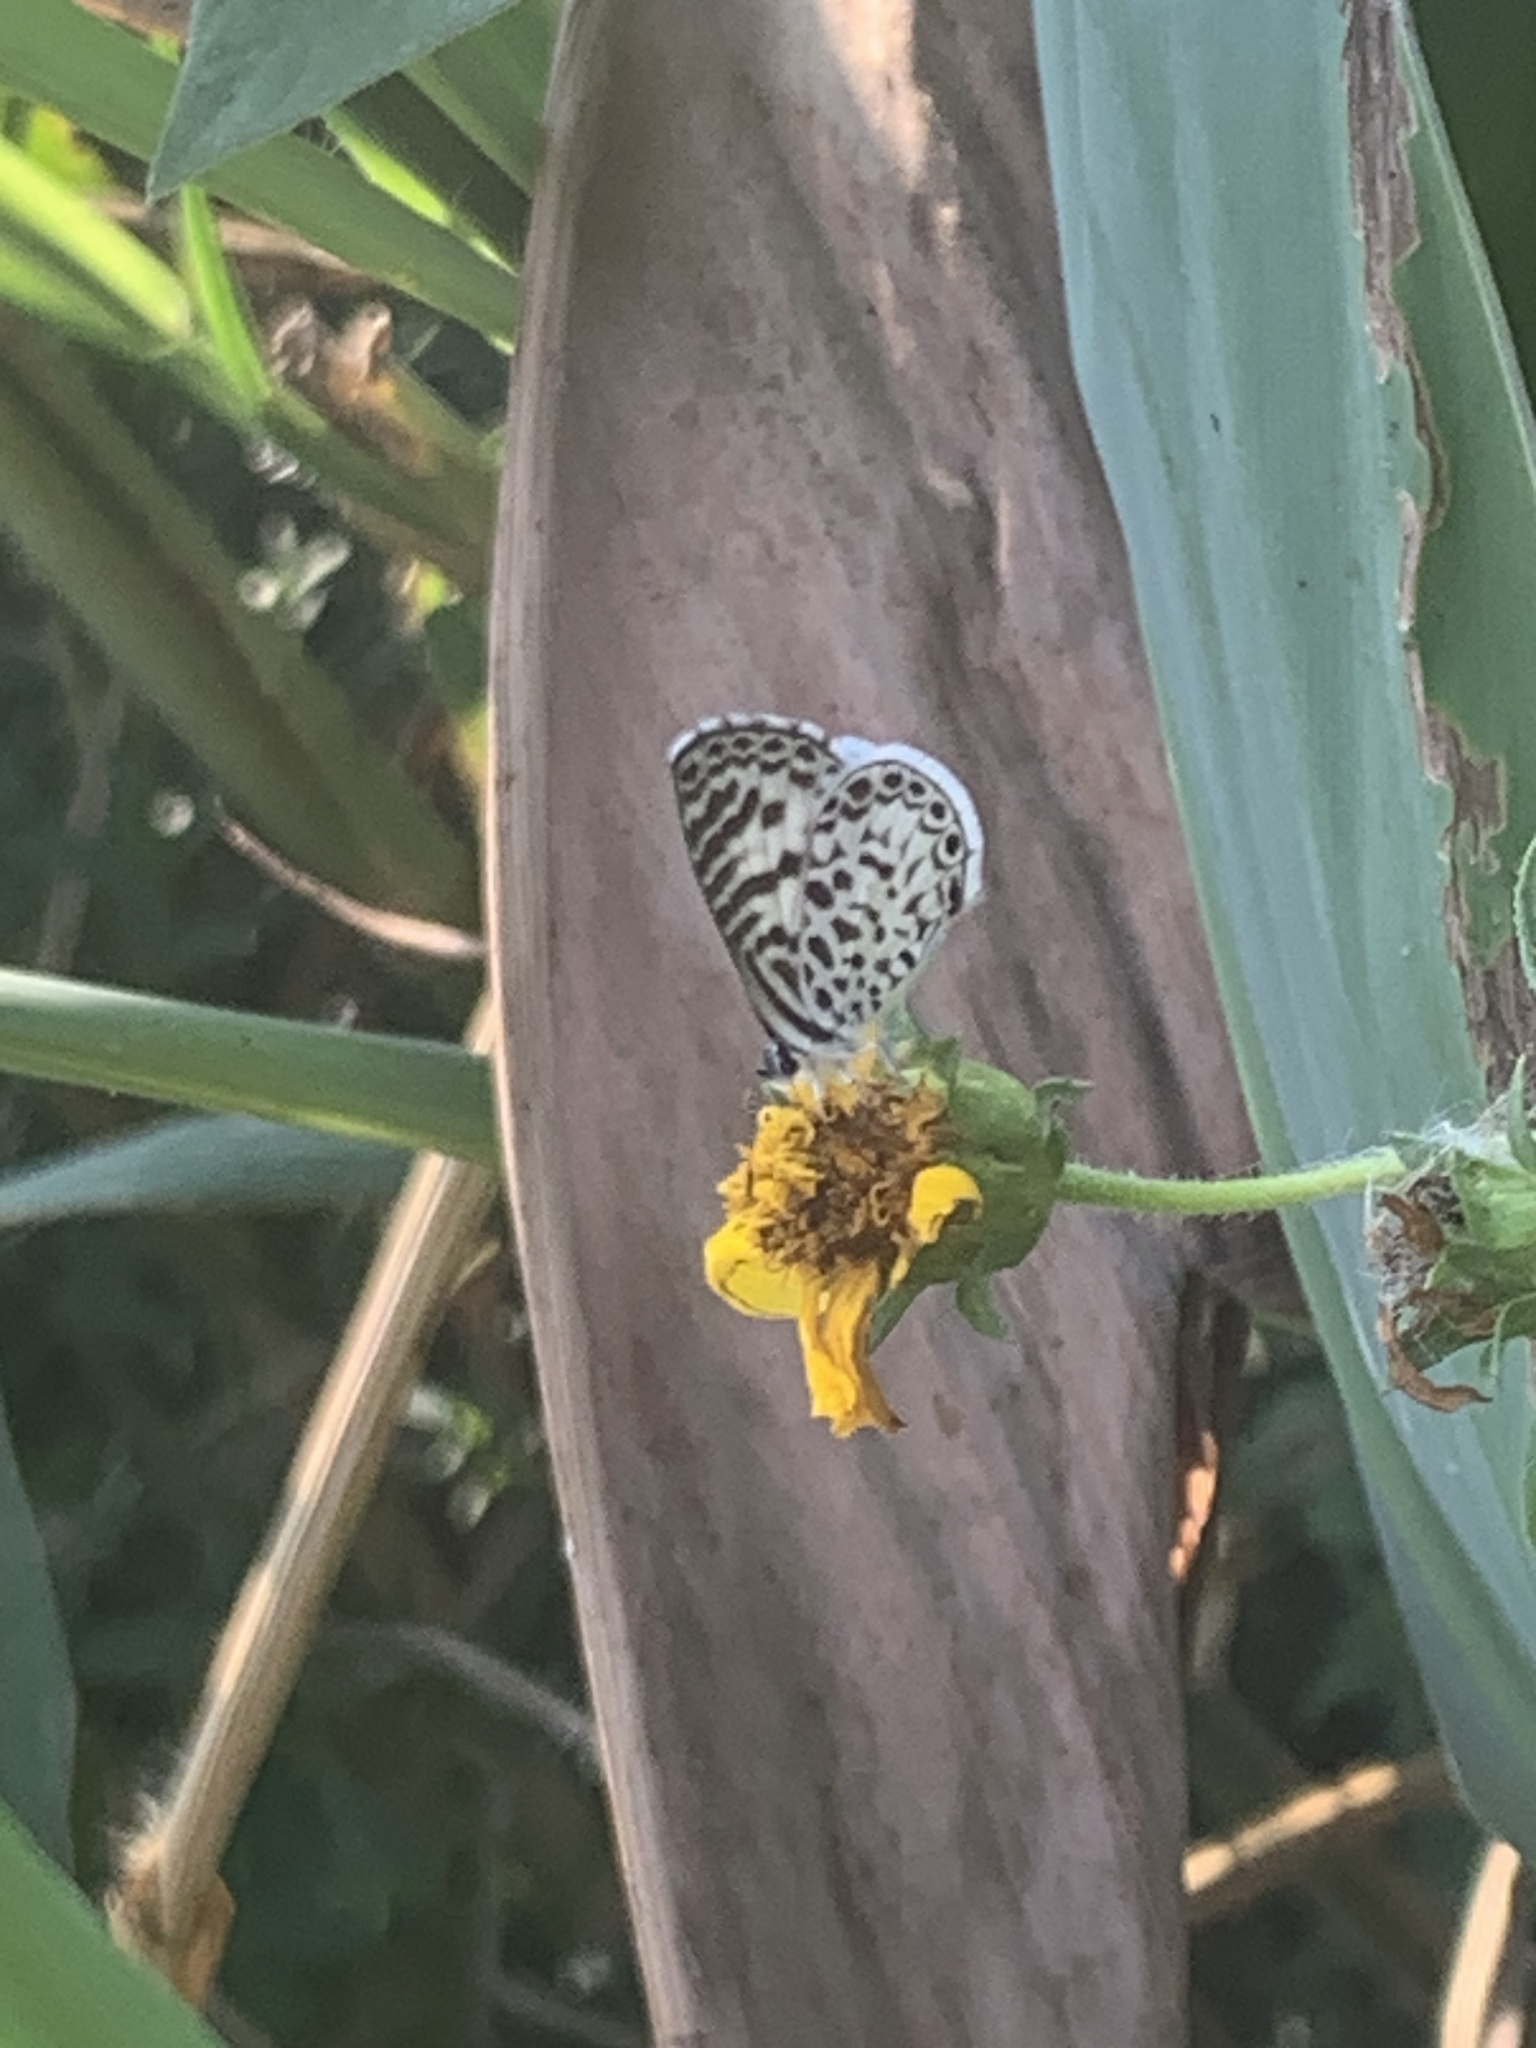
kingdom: Animalia
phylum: Arthropoda
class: Insecta
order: Lepidoptera
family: Lycaenidae
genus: Leptotes
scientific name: Leptotes cassius
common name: Cassius blue
